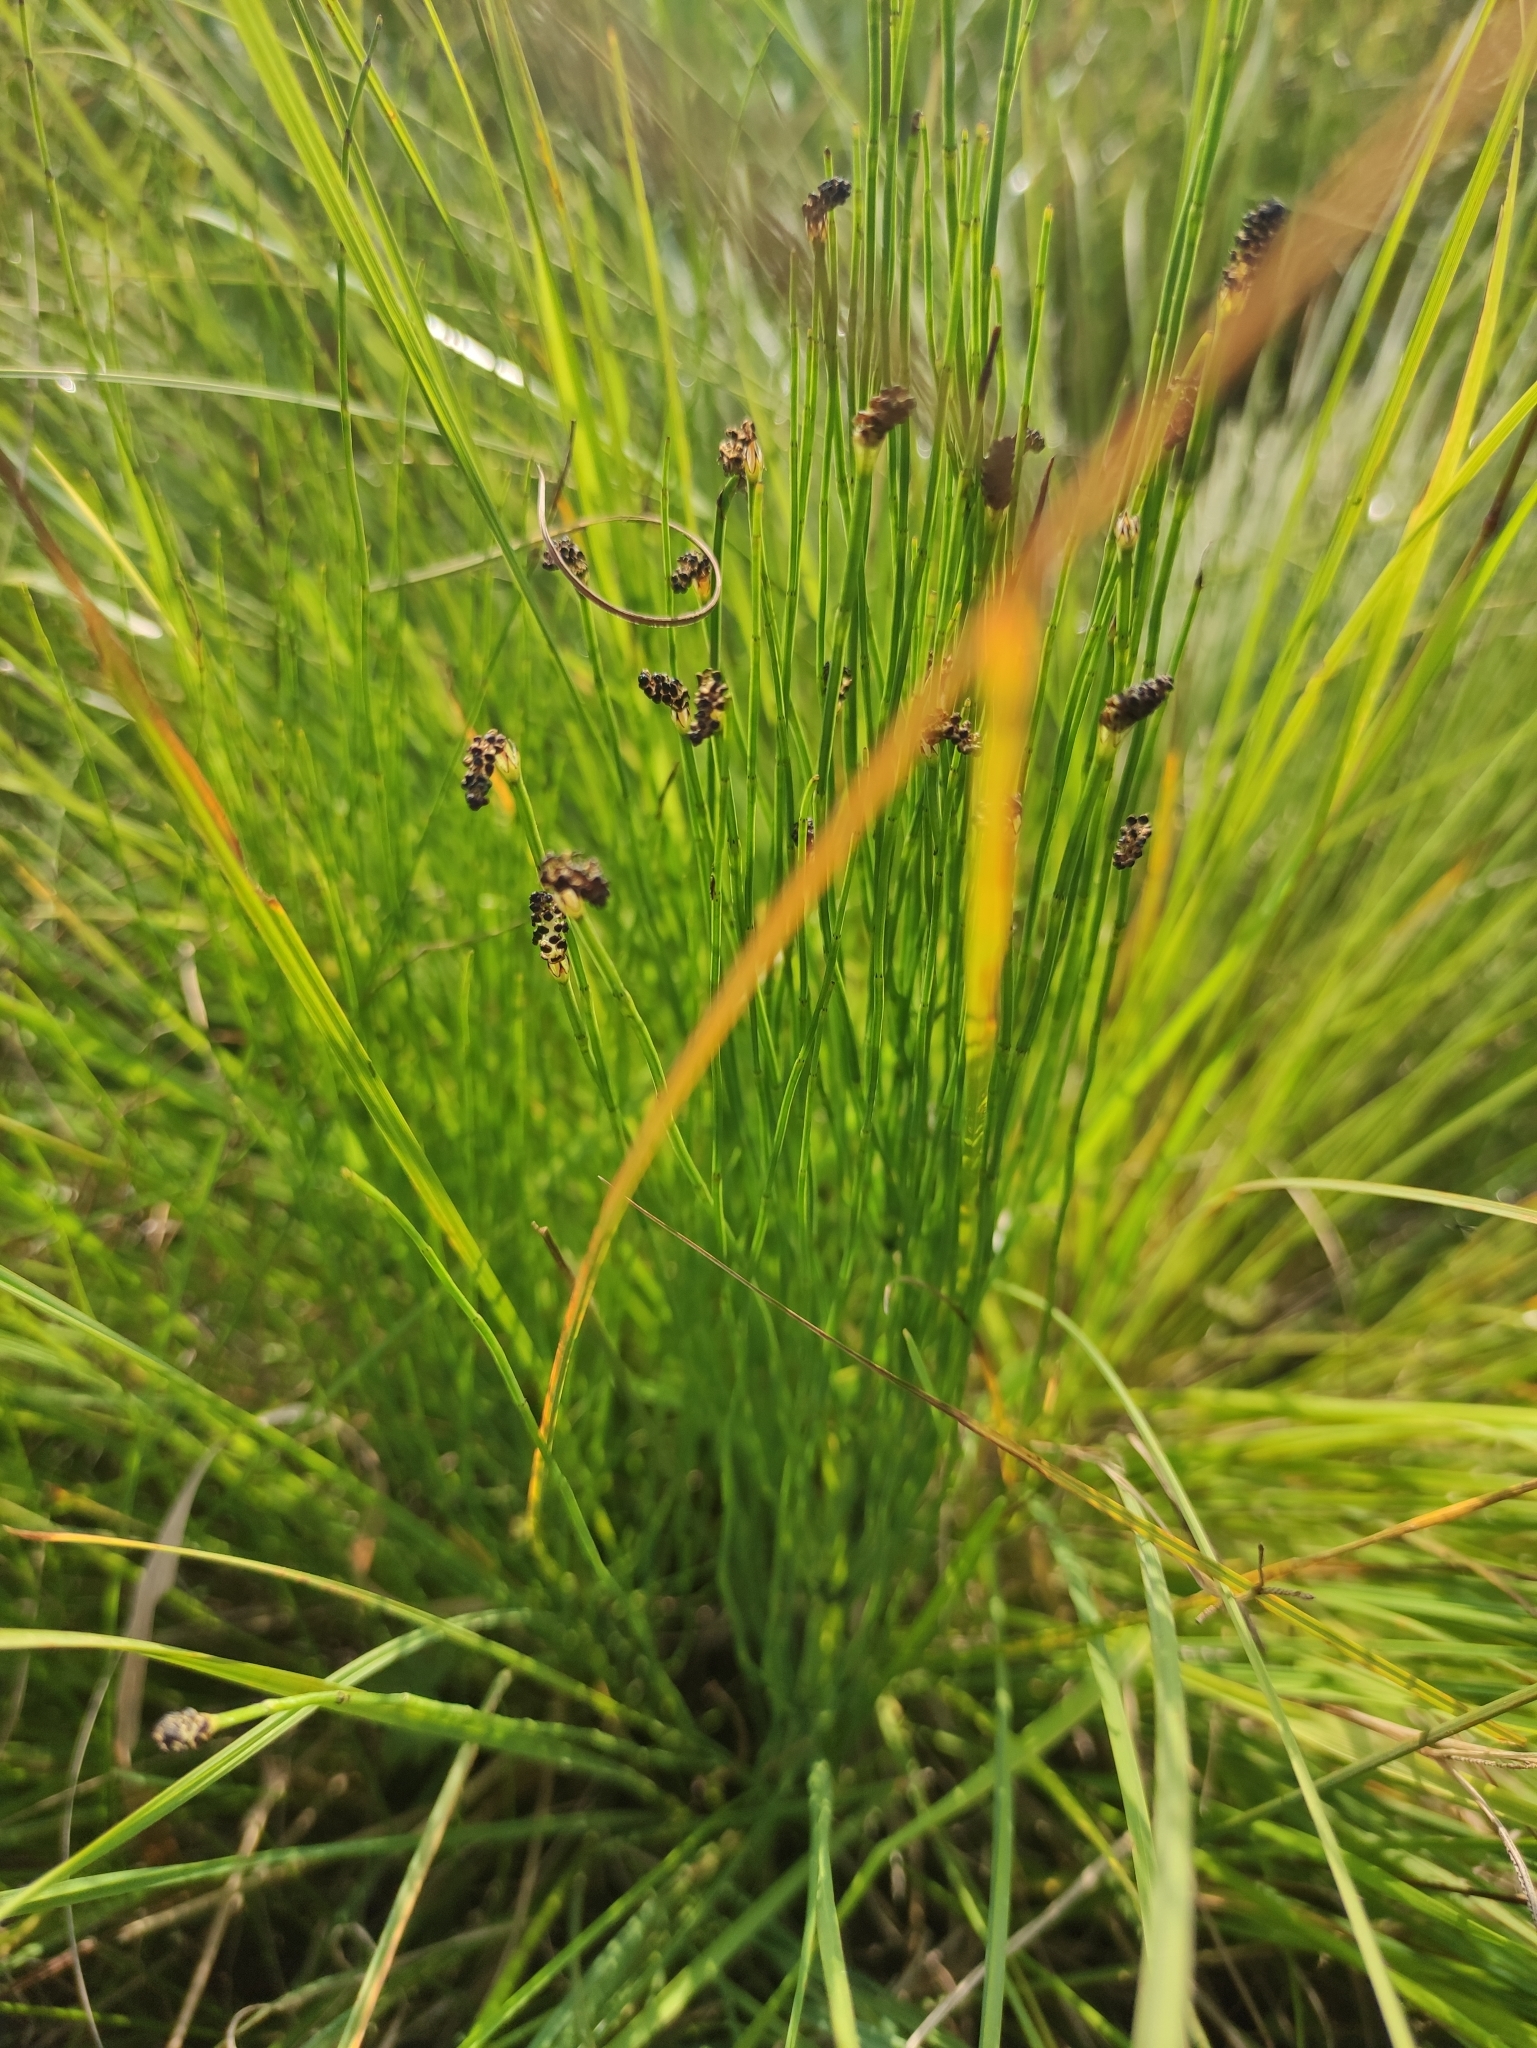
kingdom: Plantae
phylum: Tracheophyta
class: Polypodiopsida
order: Equisetales
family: Equisetaceae
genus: Equisetum
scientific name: Equisetum palustre
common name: Marsh horsetail
